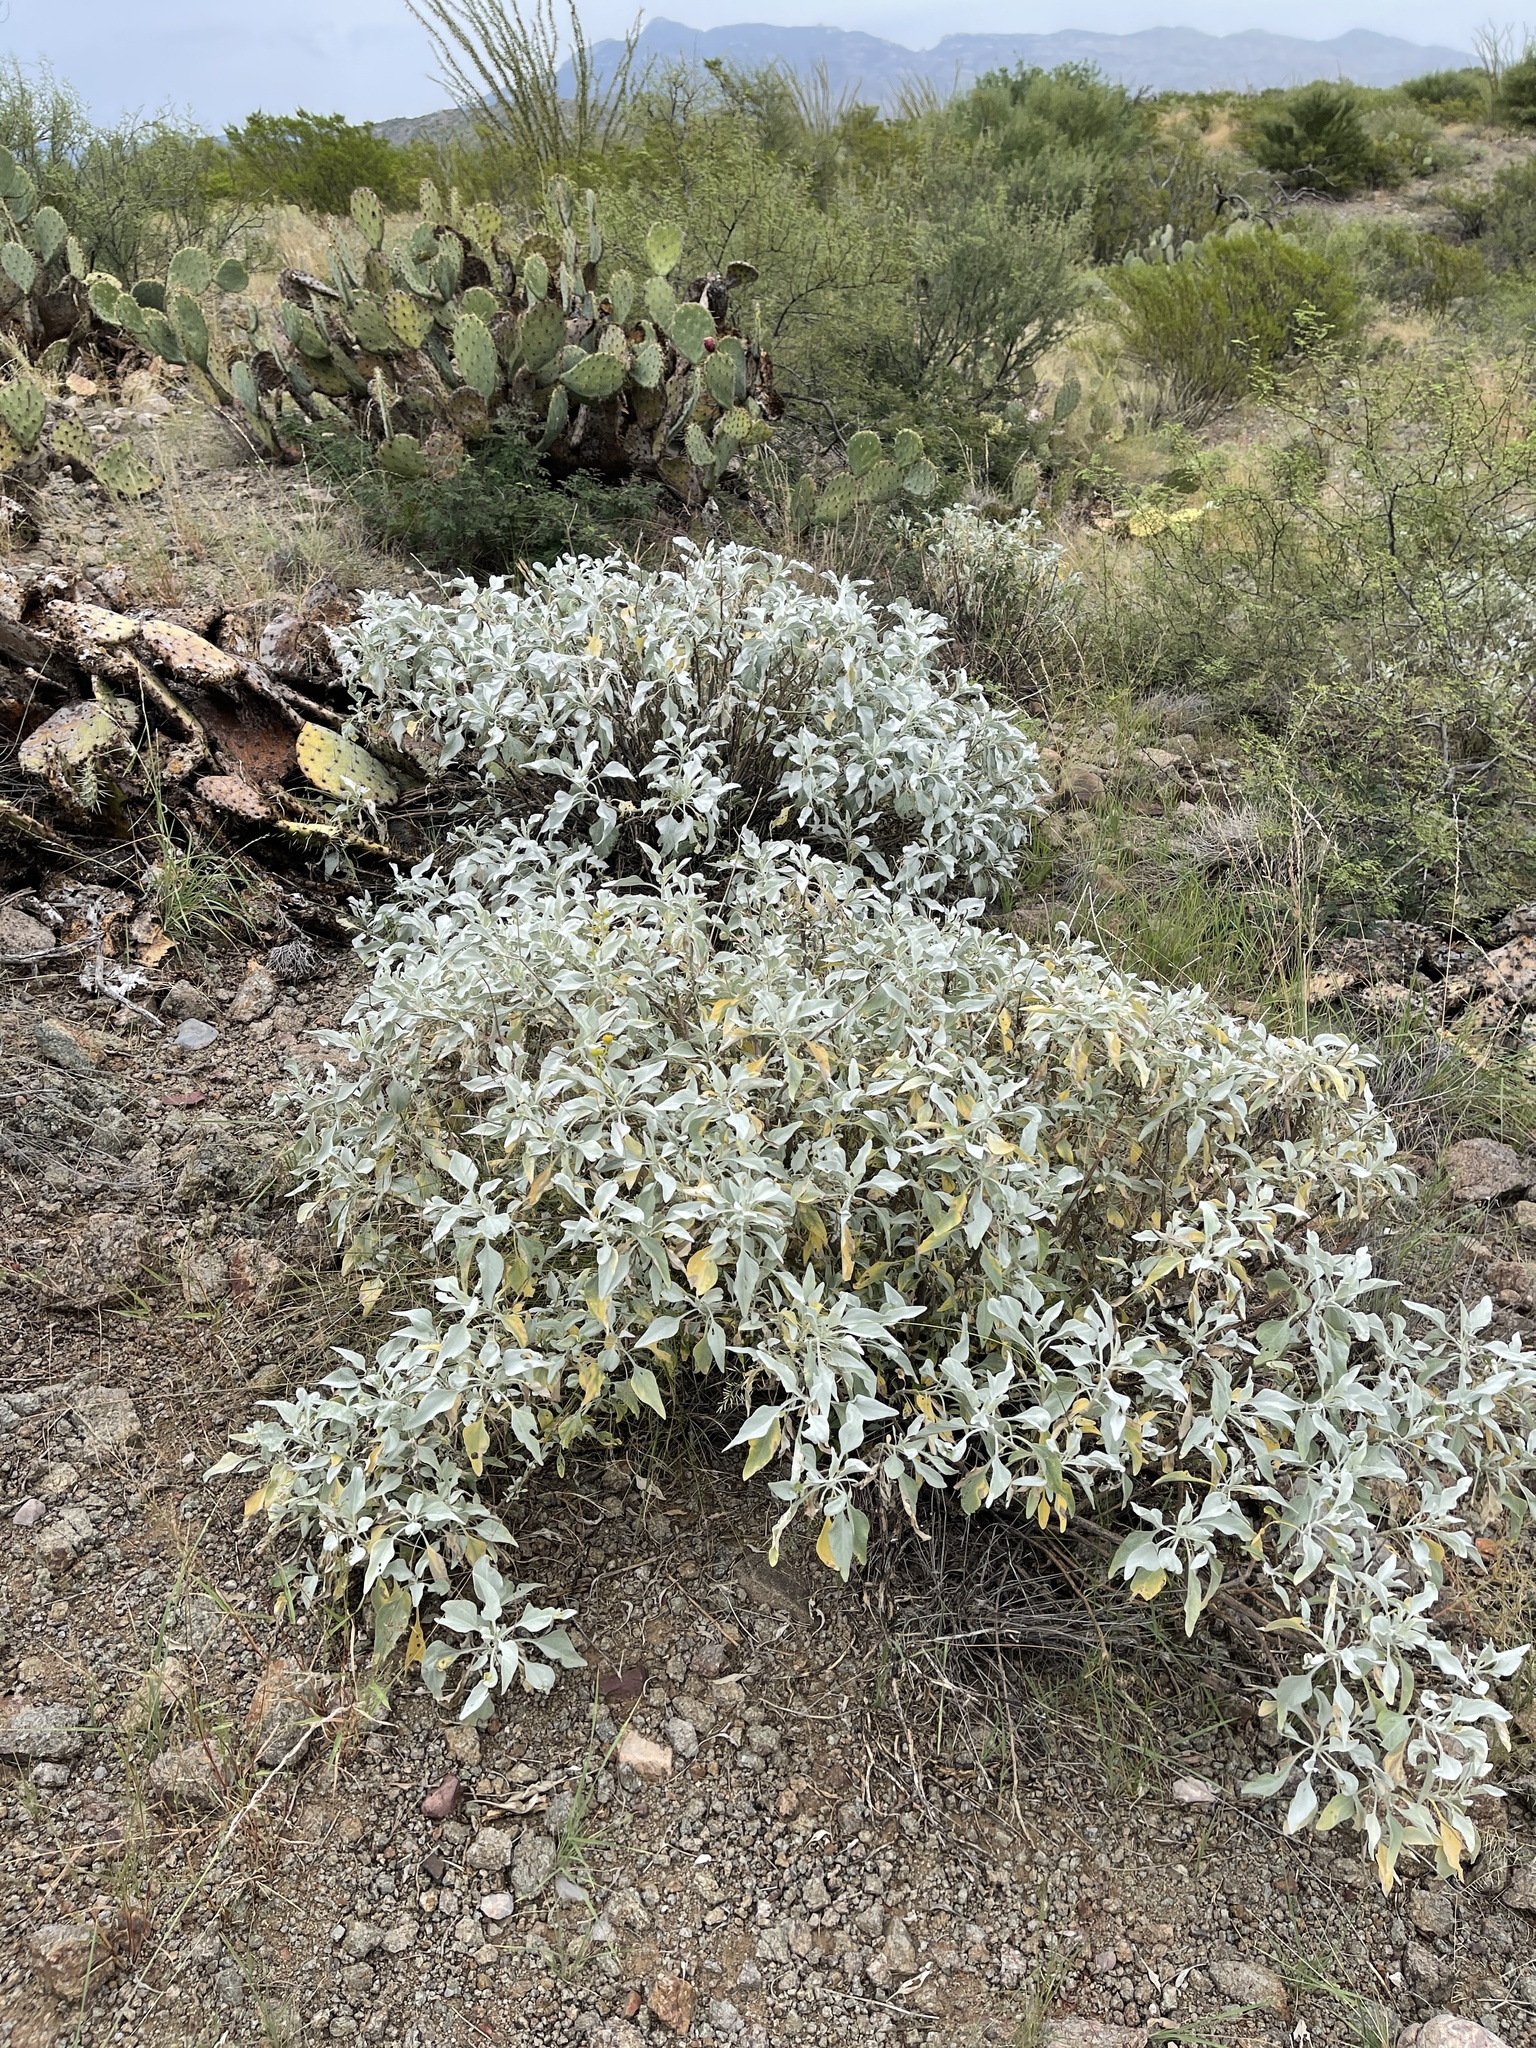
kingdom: Plantae
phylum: Tracheophyta
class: Magnoliopsida
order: Asterales
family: Asteraceae
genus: Encelia
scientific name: Encelia farinosa
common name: Brittlebush
